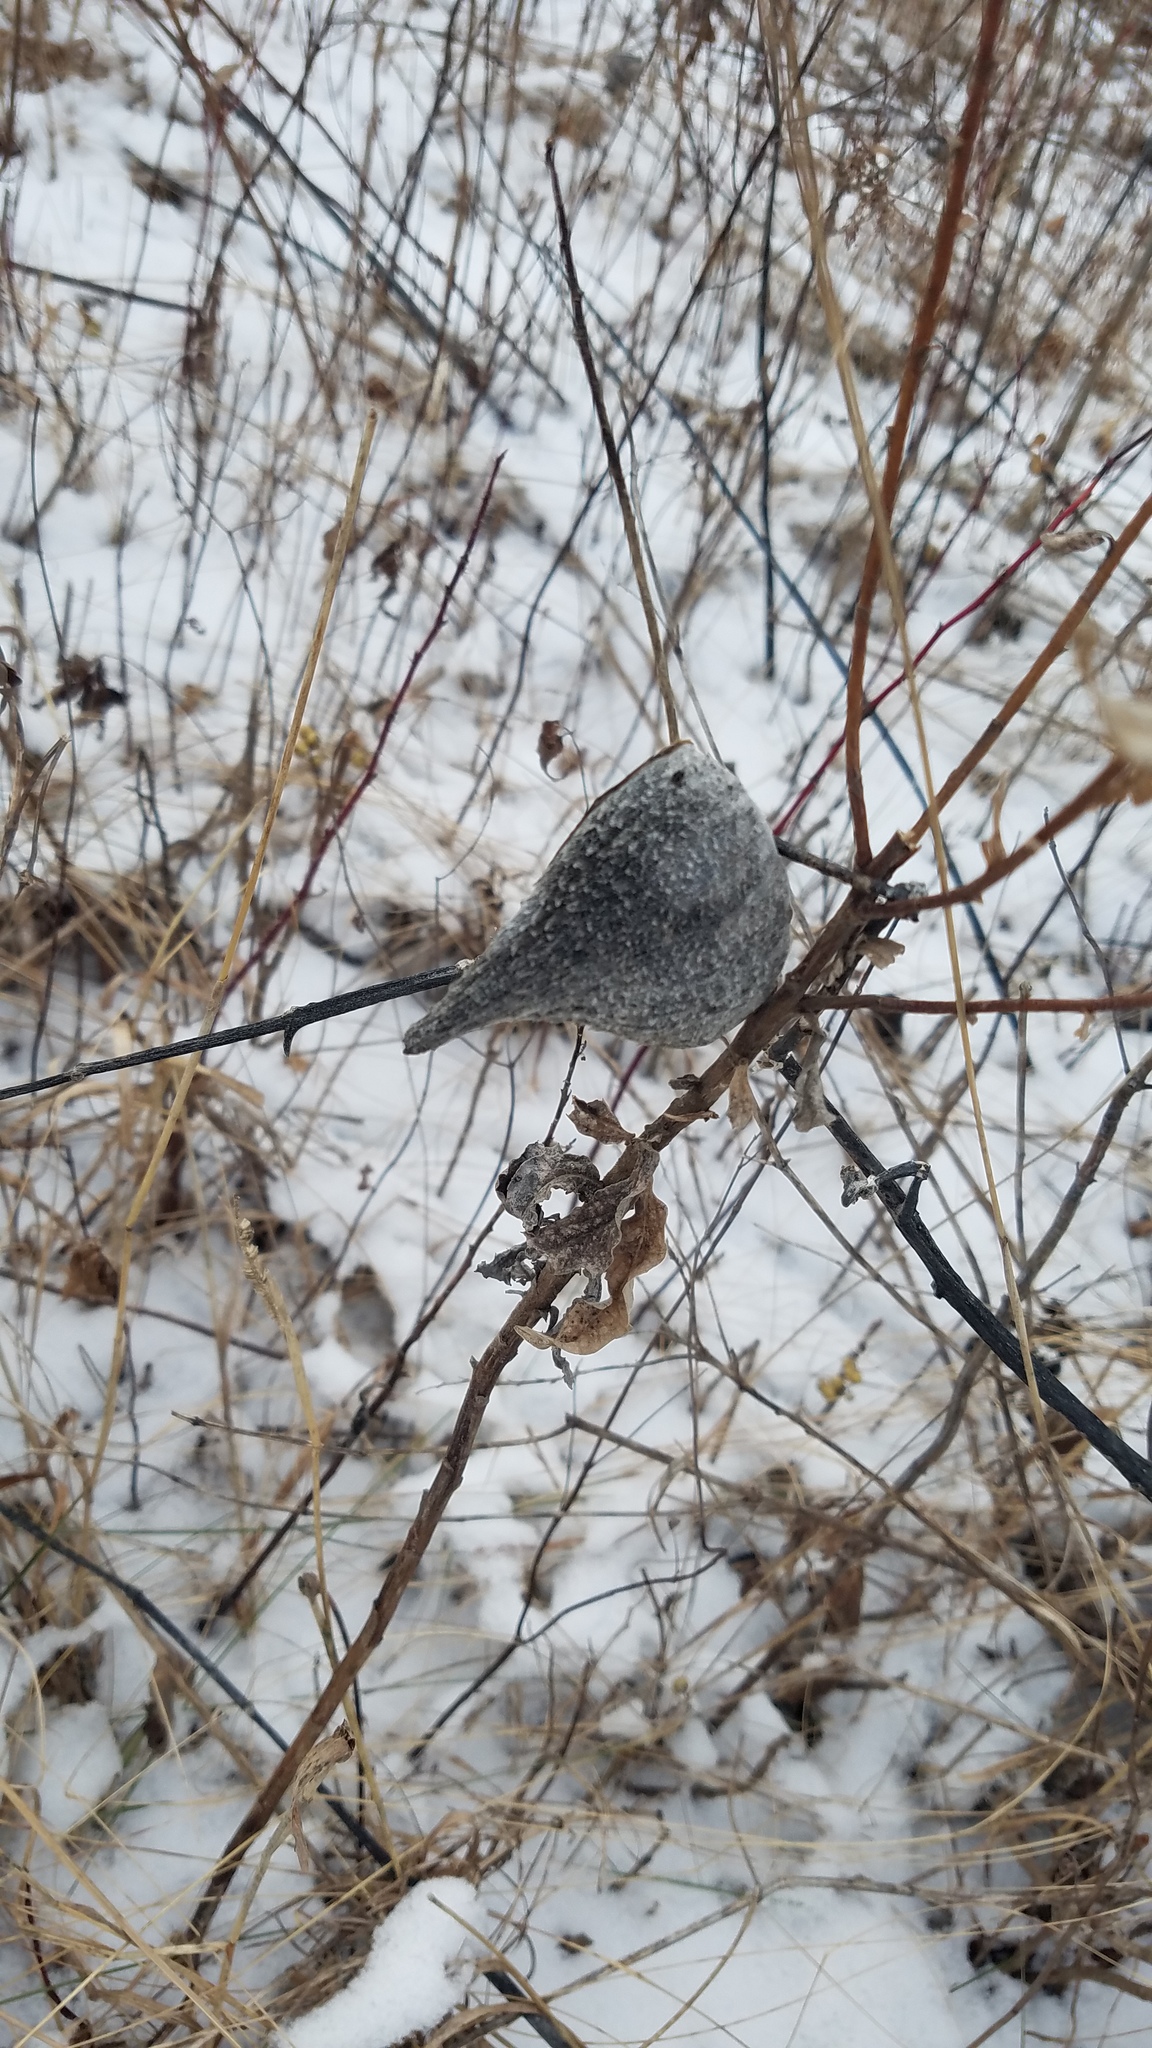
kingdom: Plantae
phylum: Tracheophyta
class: Magnoliopsida
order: Gentianales
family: Apocynaceae
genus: Asclepias
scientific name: Asclepias syriaca
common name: Common milkweed
